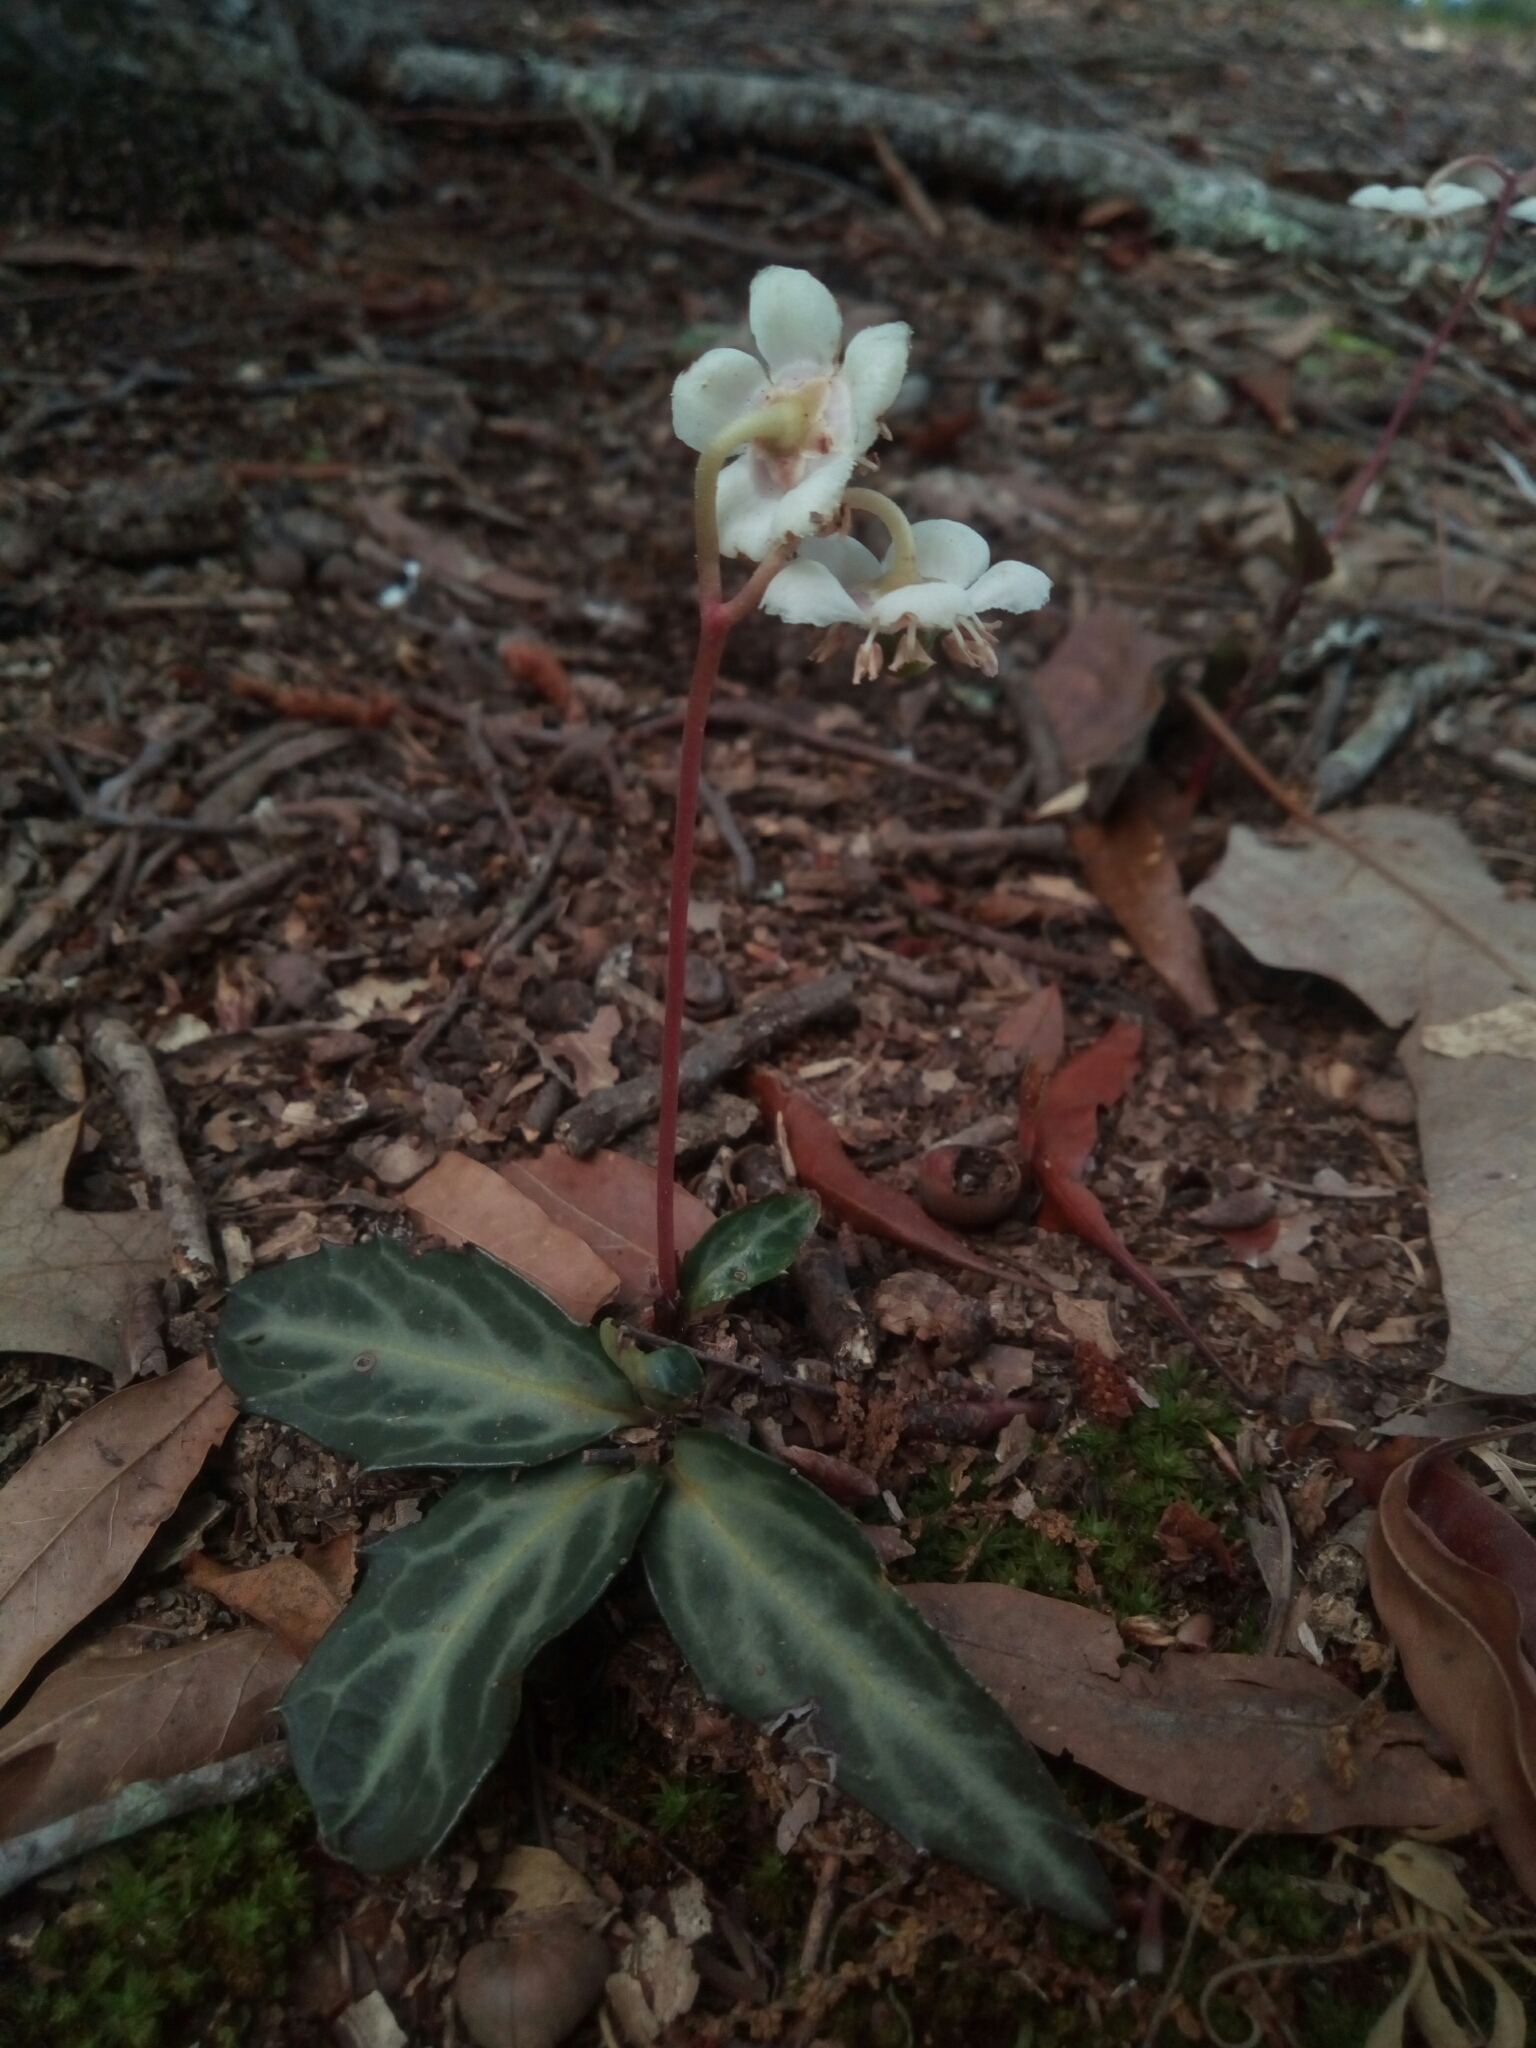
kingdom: Plantae
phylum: Tracheophyta
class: Magnoliopsida
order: Ericales
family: Ericaceae
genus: Chimaphila
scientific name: Chimaphila maculata
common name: Spotted pipsissewa
